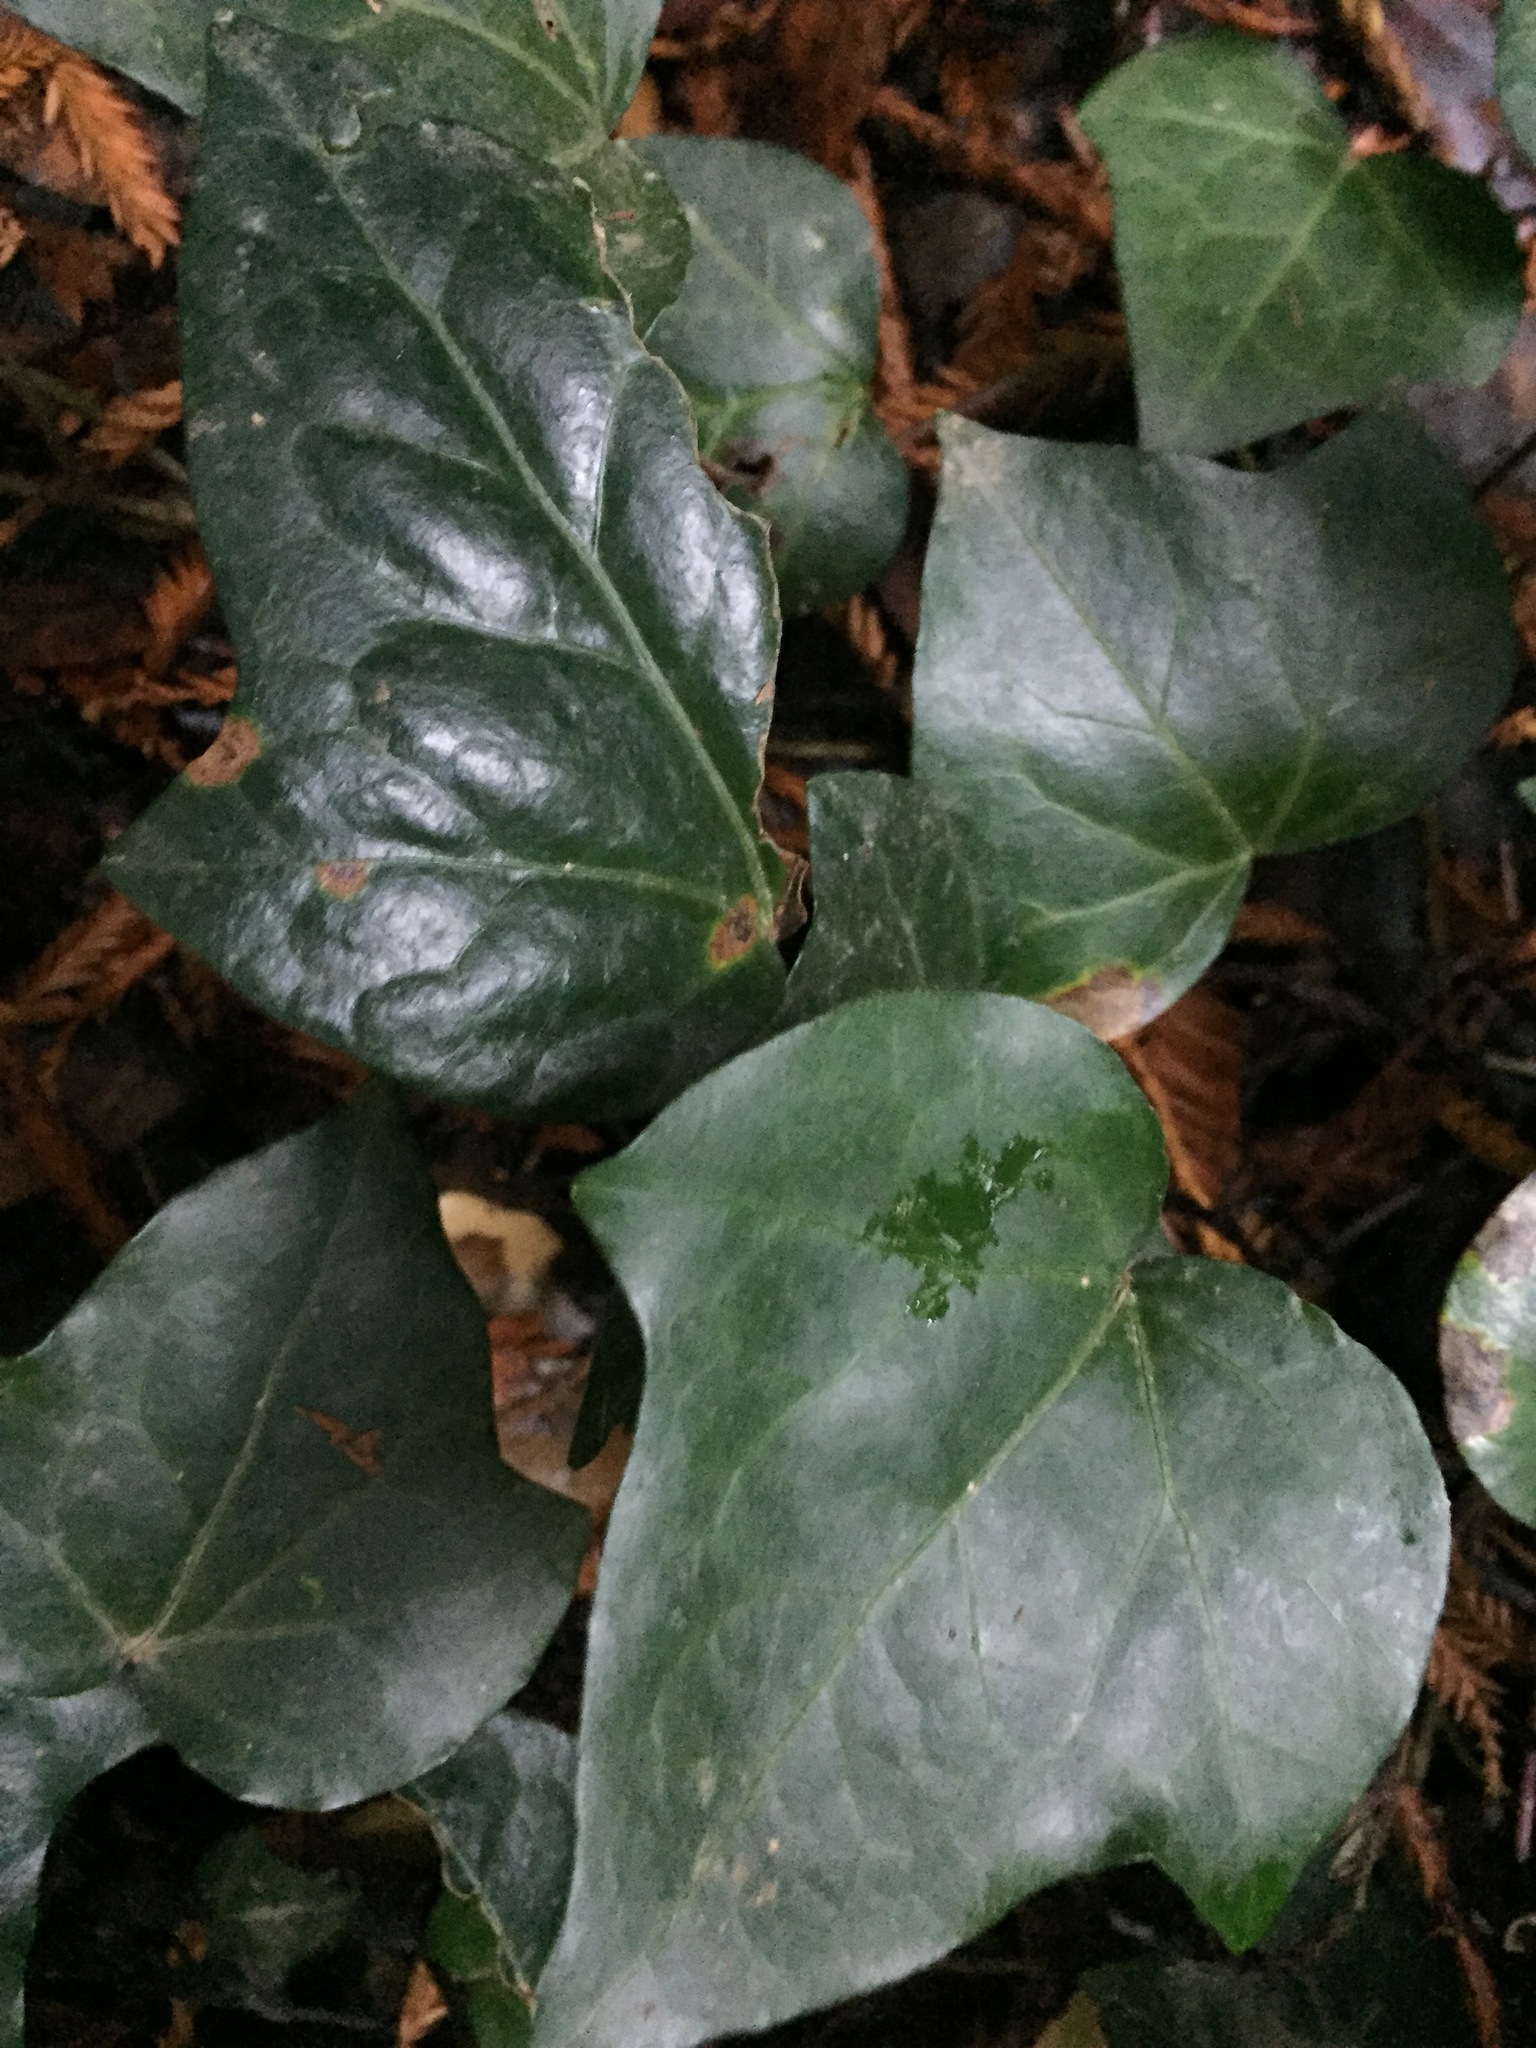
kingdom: Plantae
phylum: Tracheophyta
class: Magnoliopsida
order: Apiales
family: Araliaceae
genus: Hedera
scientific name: Hedera helix
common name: Ivy
